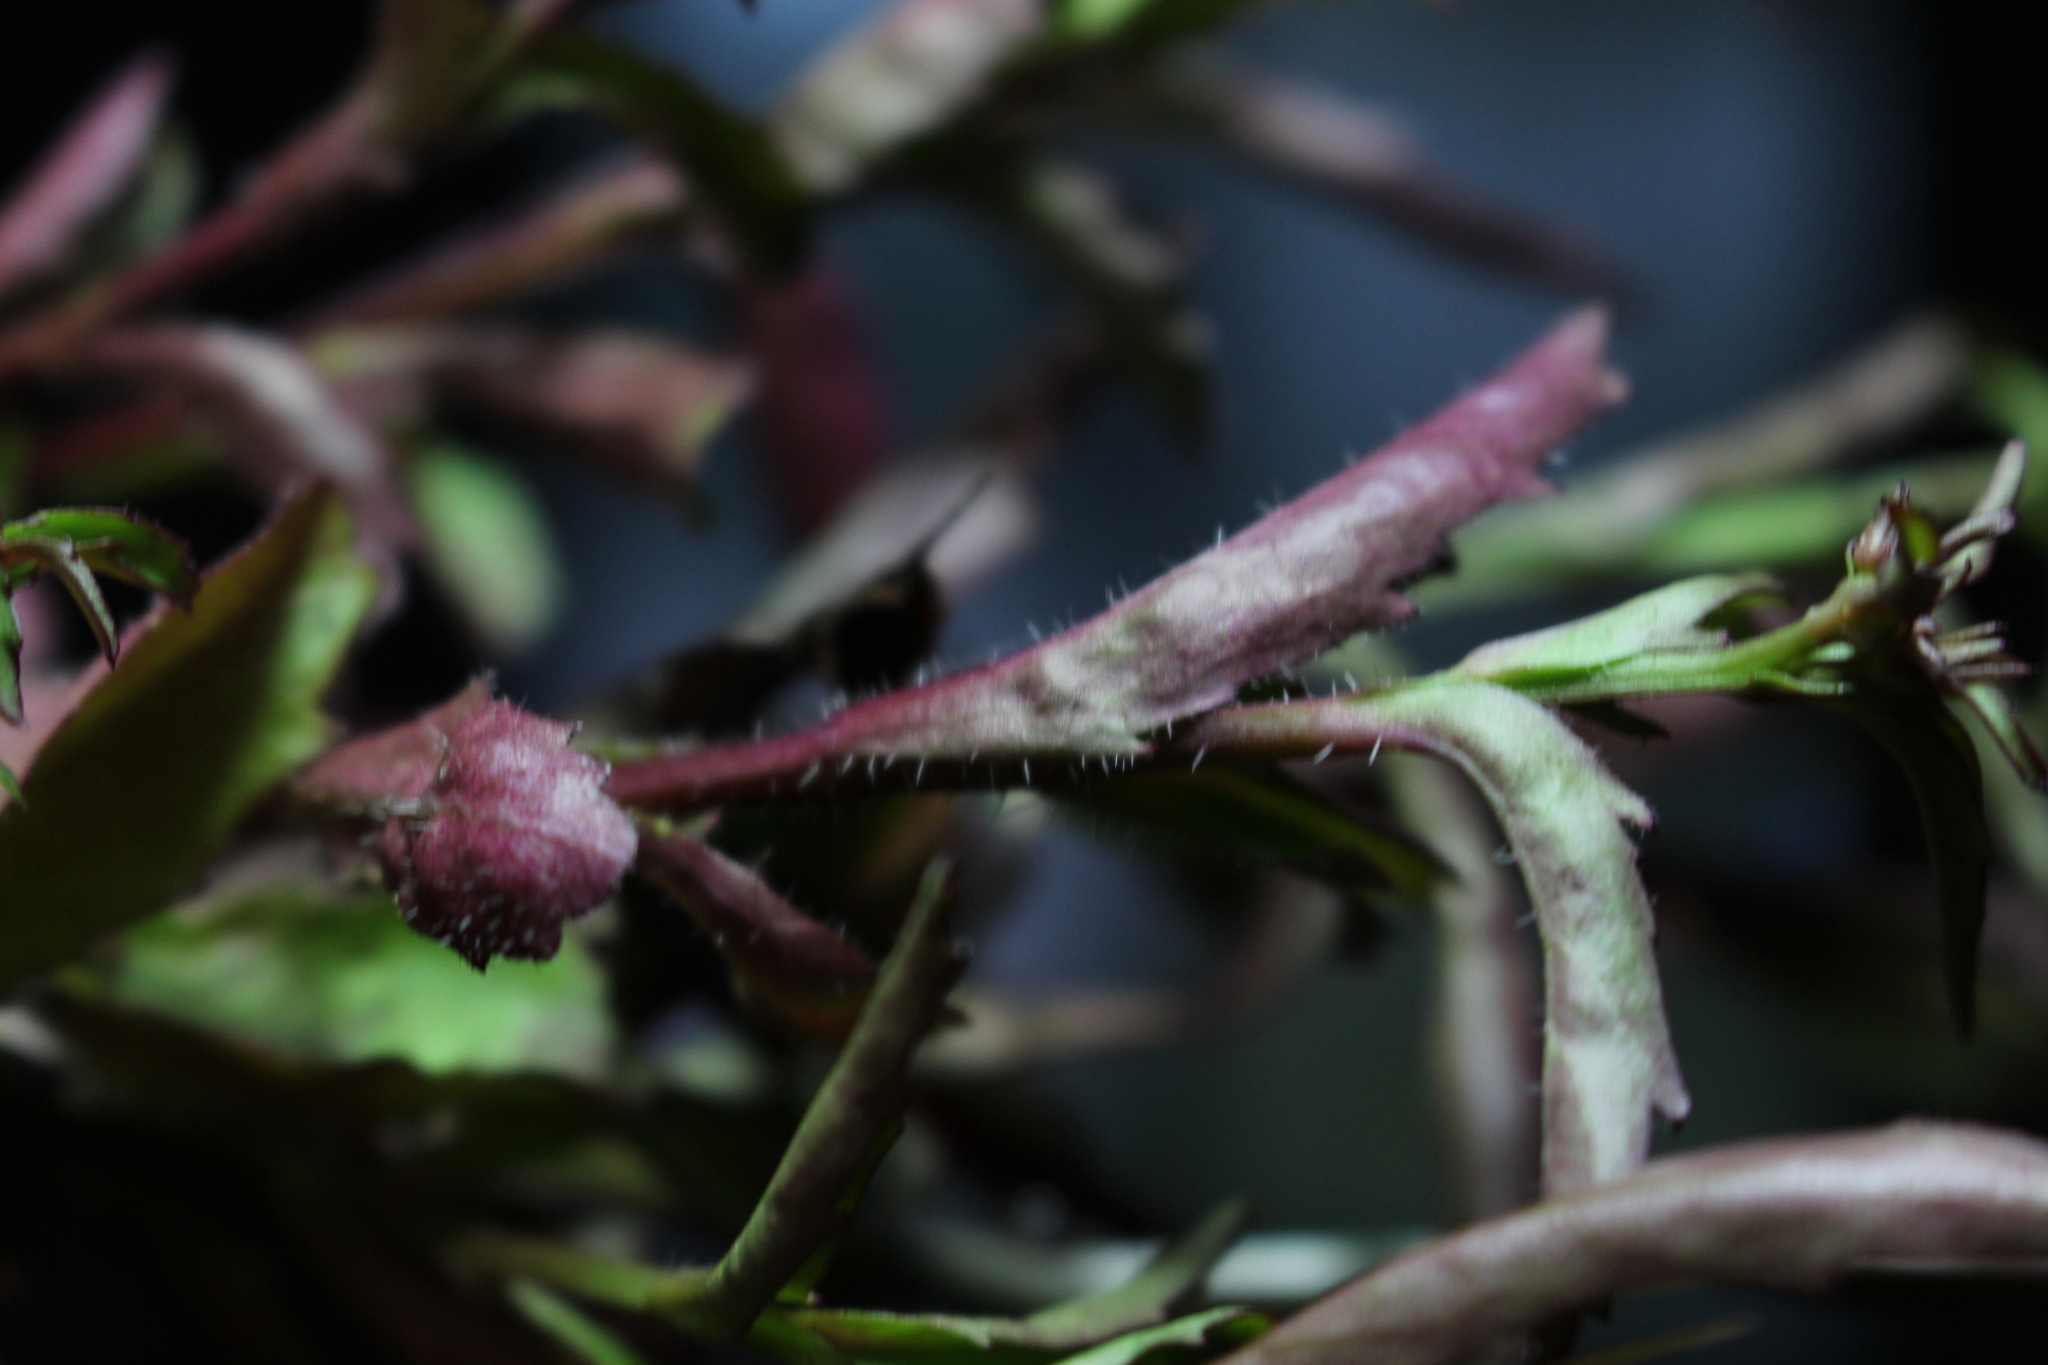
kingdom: Plantae
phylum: Tracheophyta
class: Magnoliopsida
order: Asterales
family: Campanulaceae
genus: Lobelia
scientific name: Lobelia erinus
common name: Edging lobelia
